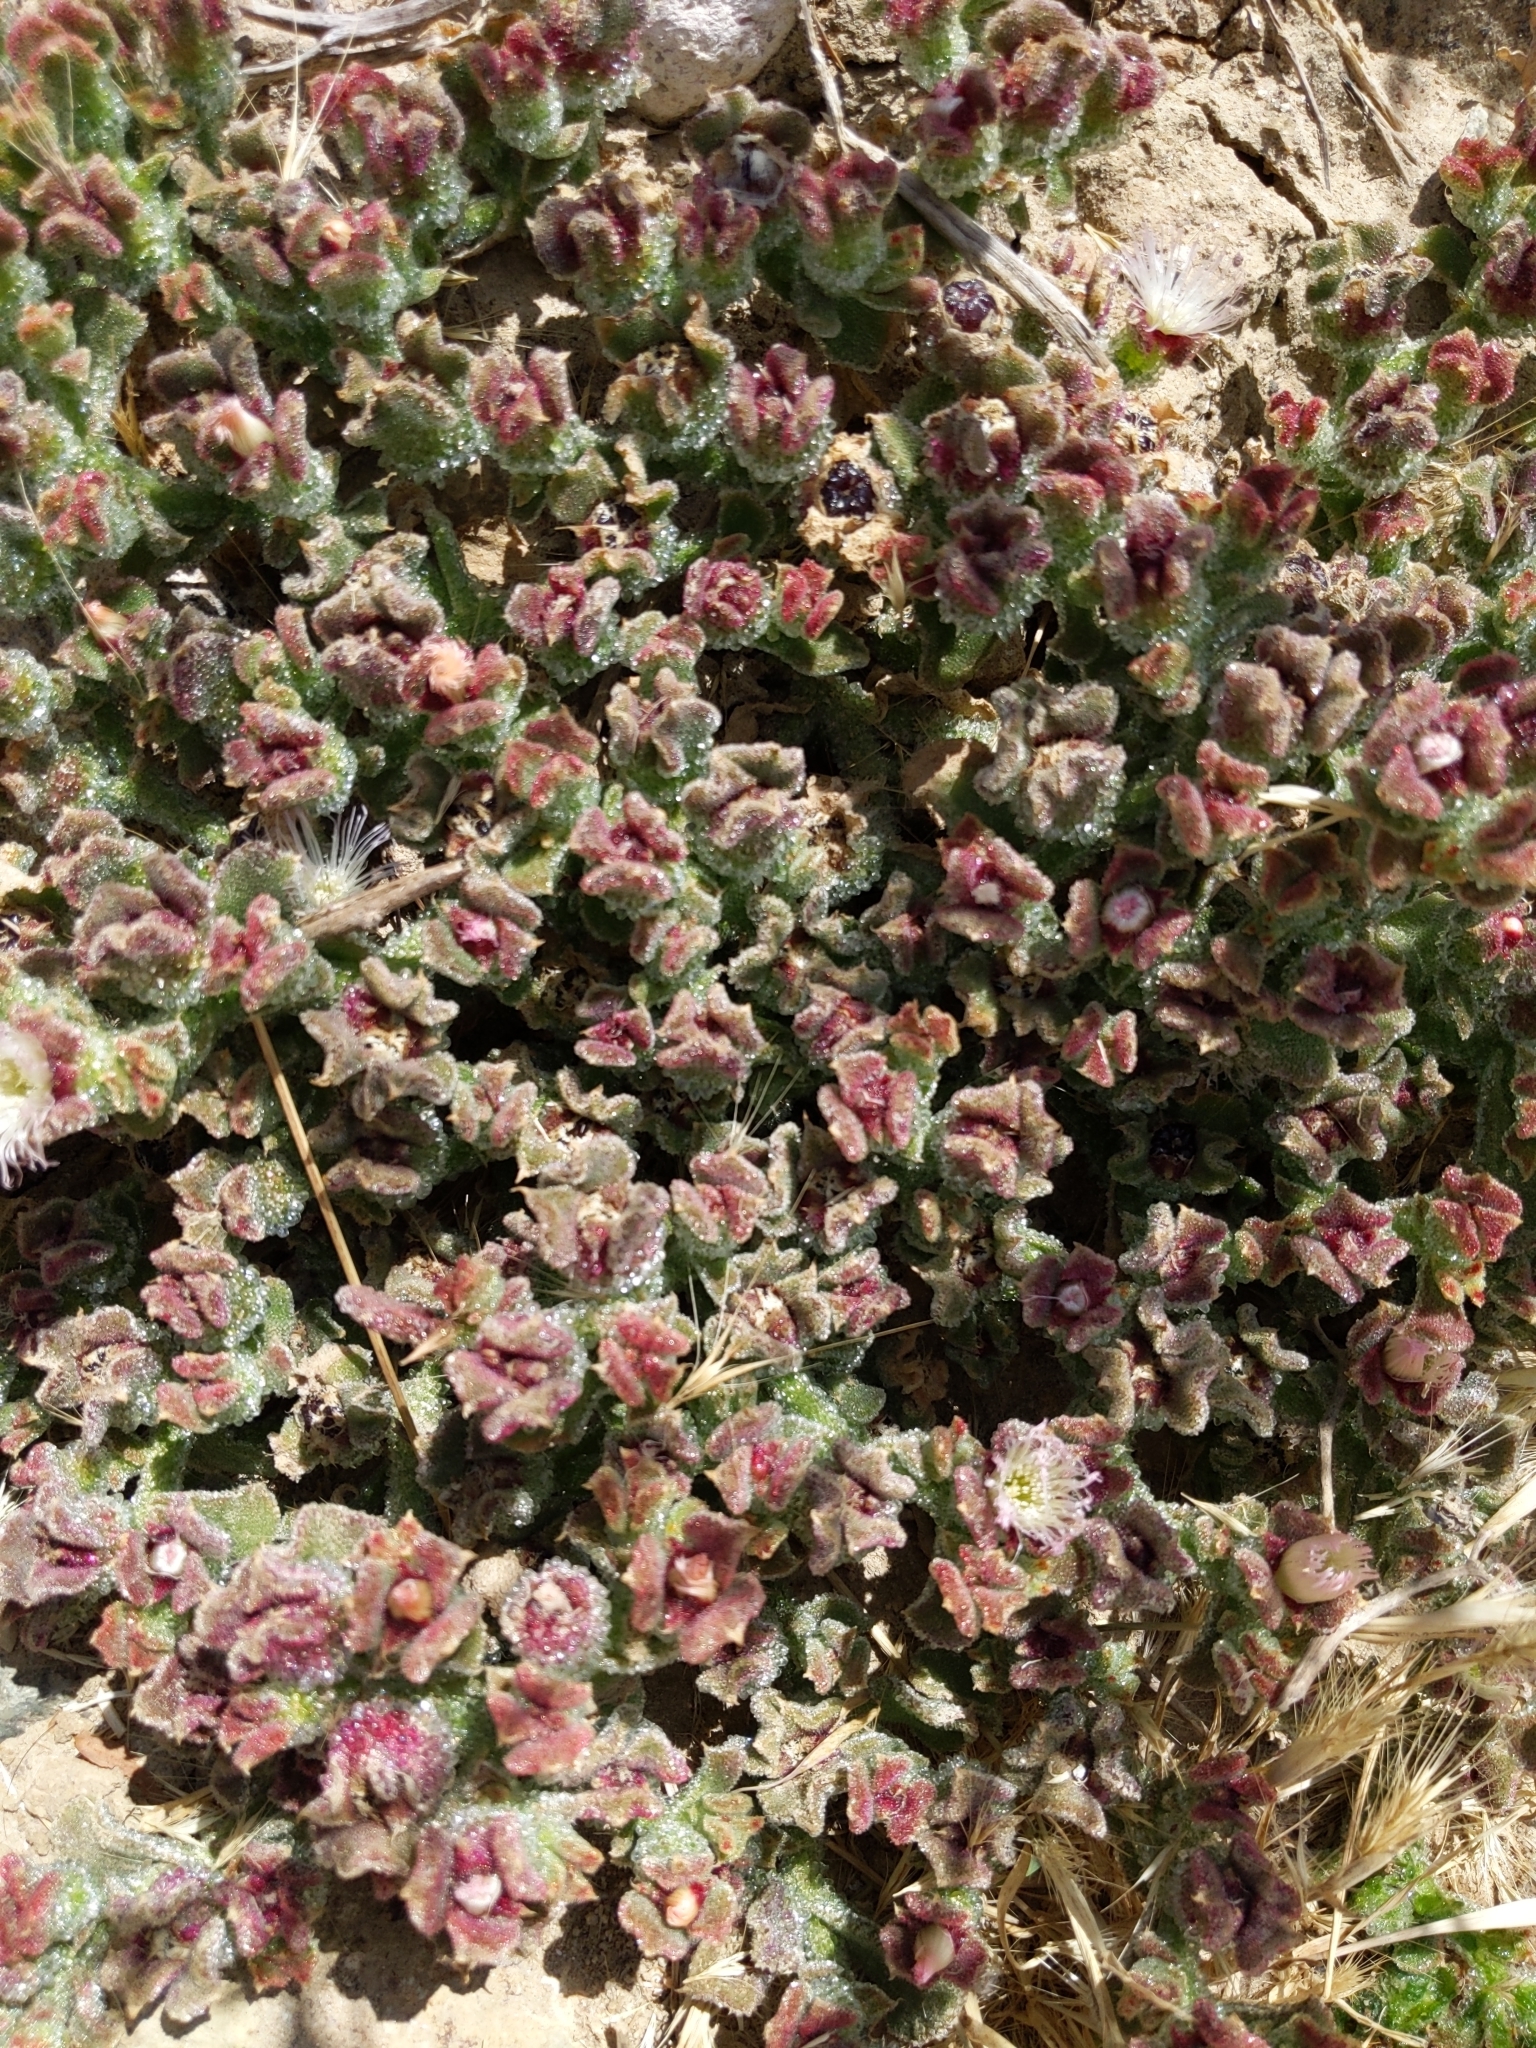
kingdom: Plantae
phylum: Tracheophyta
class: Magnoliopsida
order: Caryophyllales
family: Aizoaceae
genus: Mesembryanthemum
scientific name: Mesembryanthemum crystallinum
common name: Common iceplant
